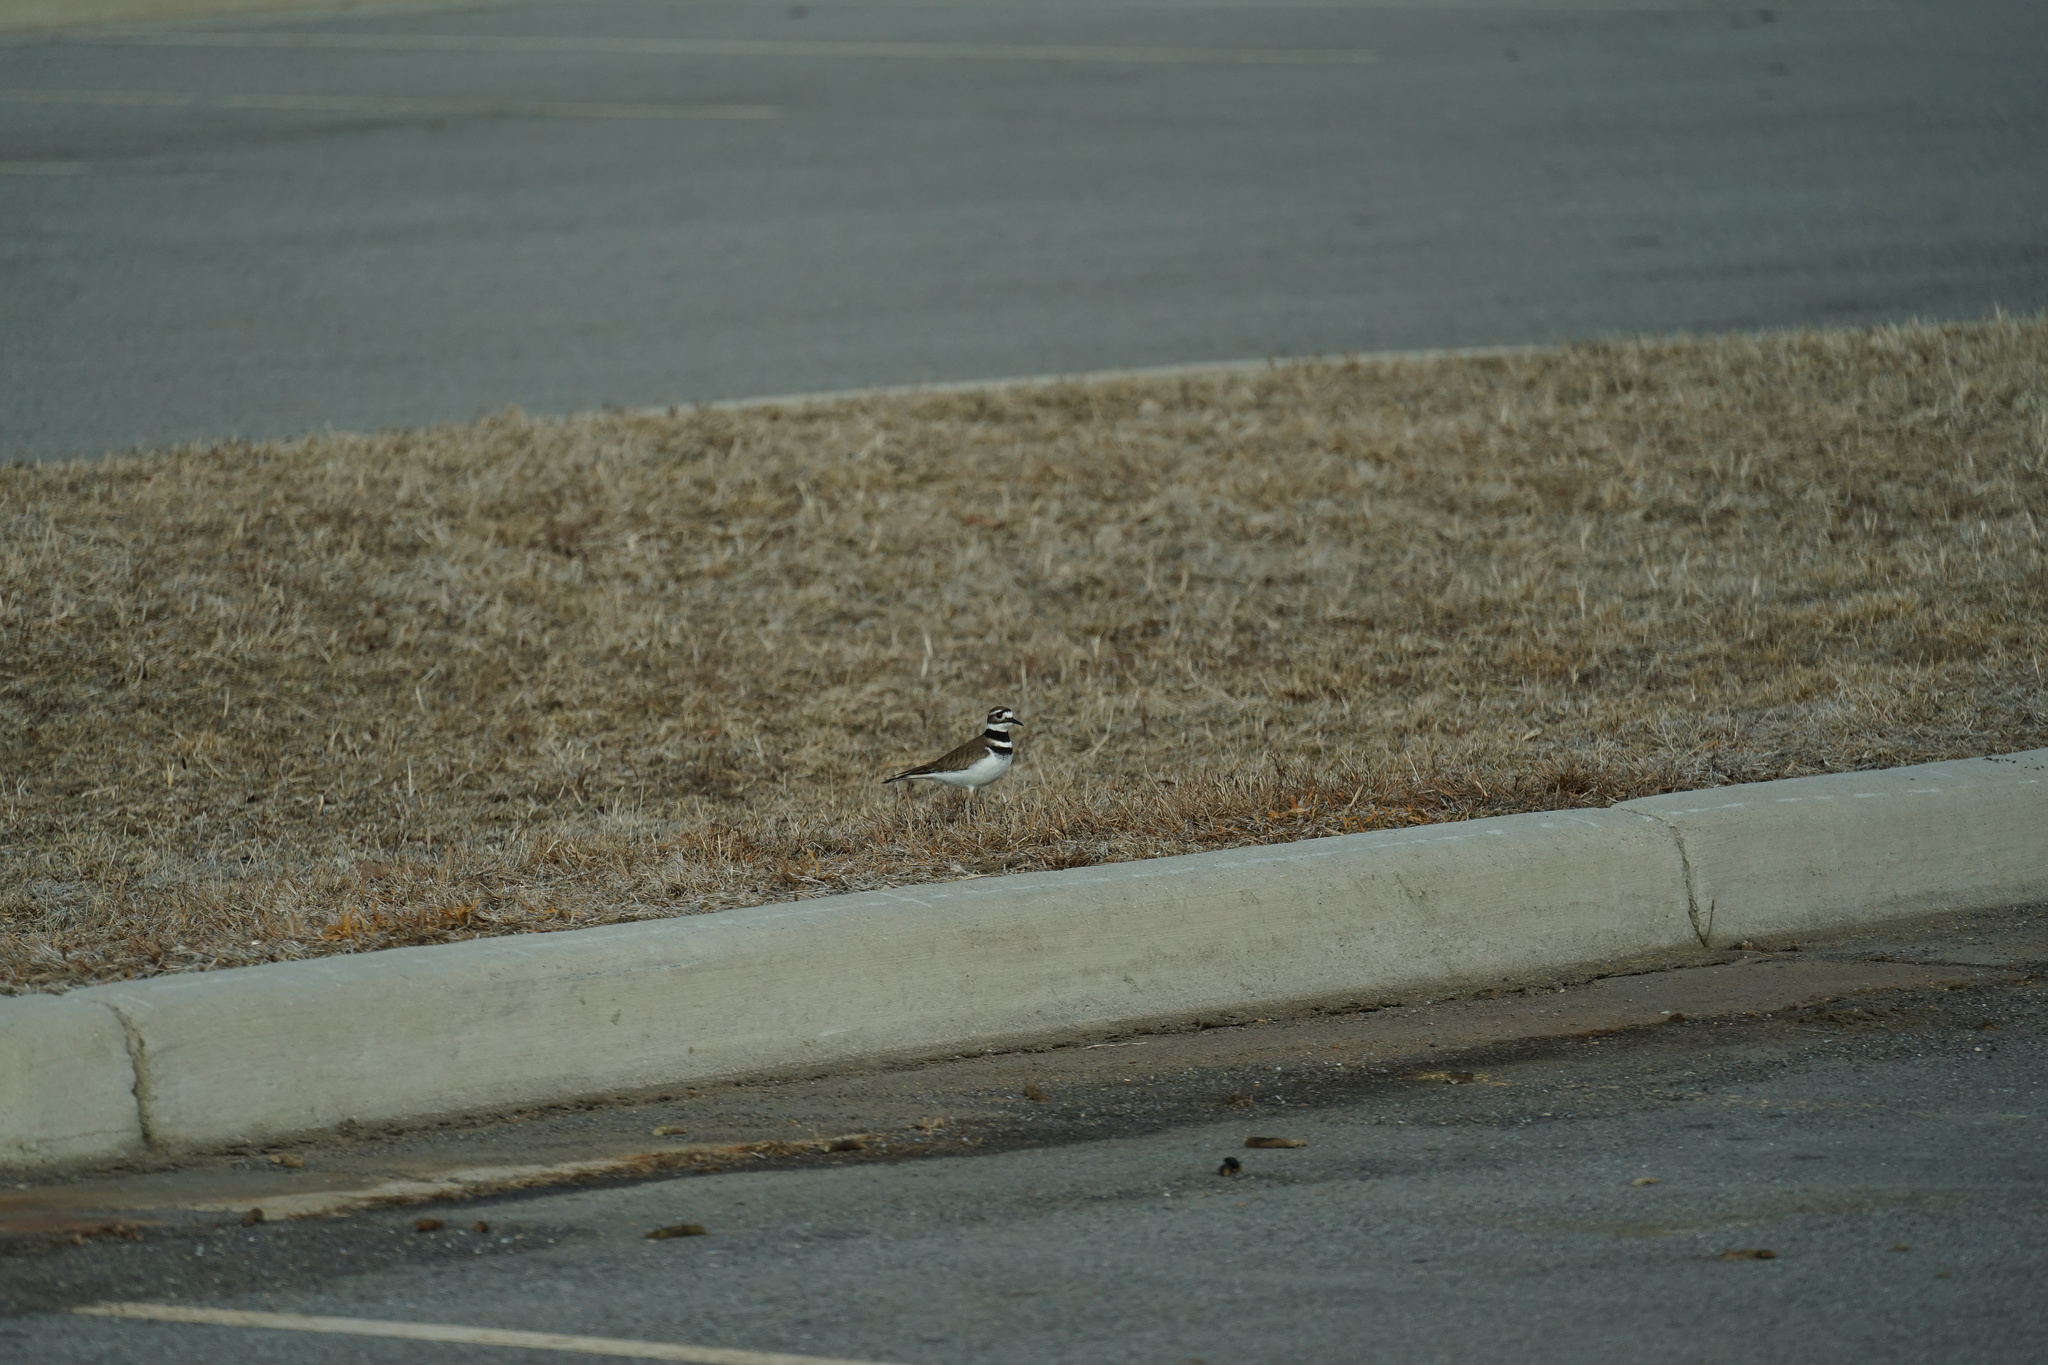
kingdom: Animalia
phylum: Chordata
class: Aves
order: Charadriiformes
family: Charadriidae
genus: Charadrius
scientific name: Charadrius vociferus
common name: Killdeer
